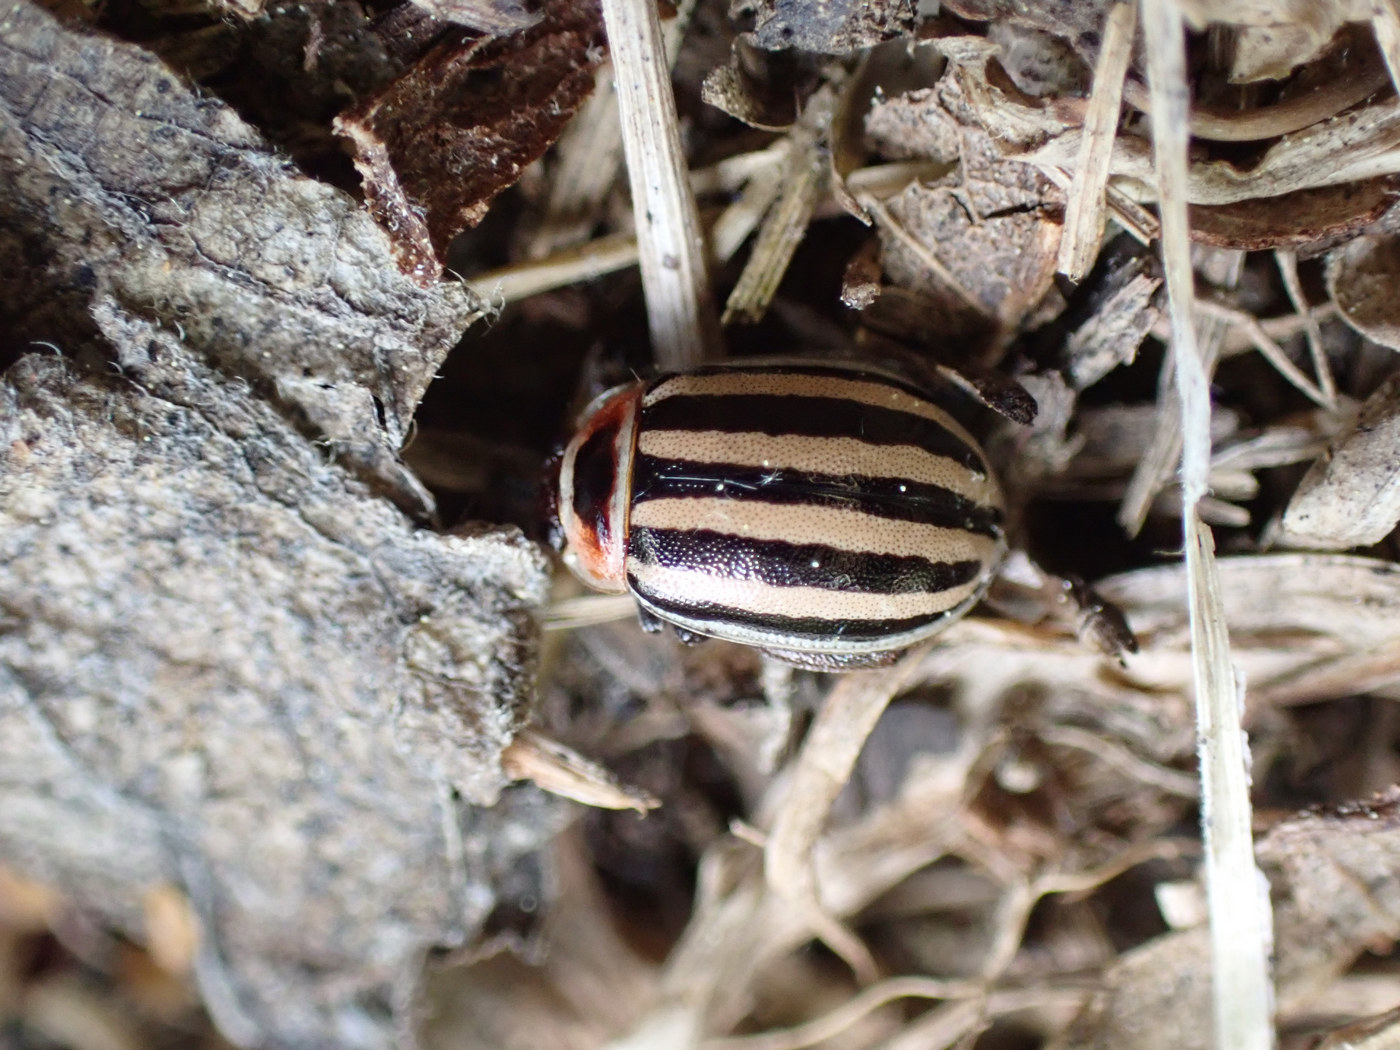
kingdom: Animalia
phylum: Arthropoda
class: Insecta
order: Coleoptera
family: Chrysomelidae
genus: Kuschelina
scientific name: Kuschelina petaurista
